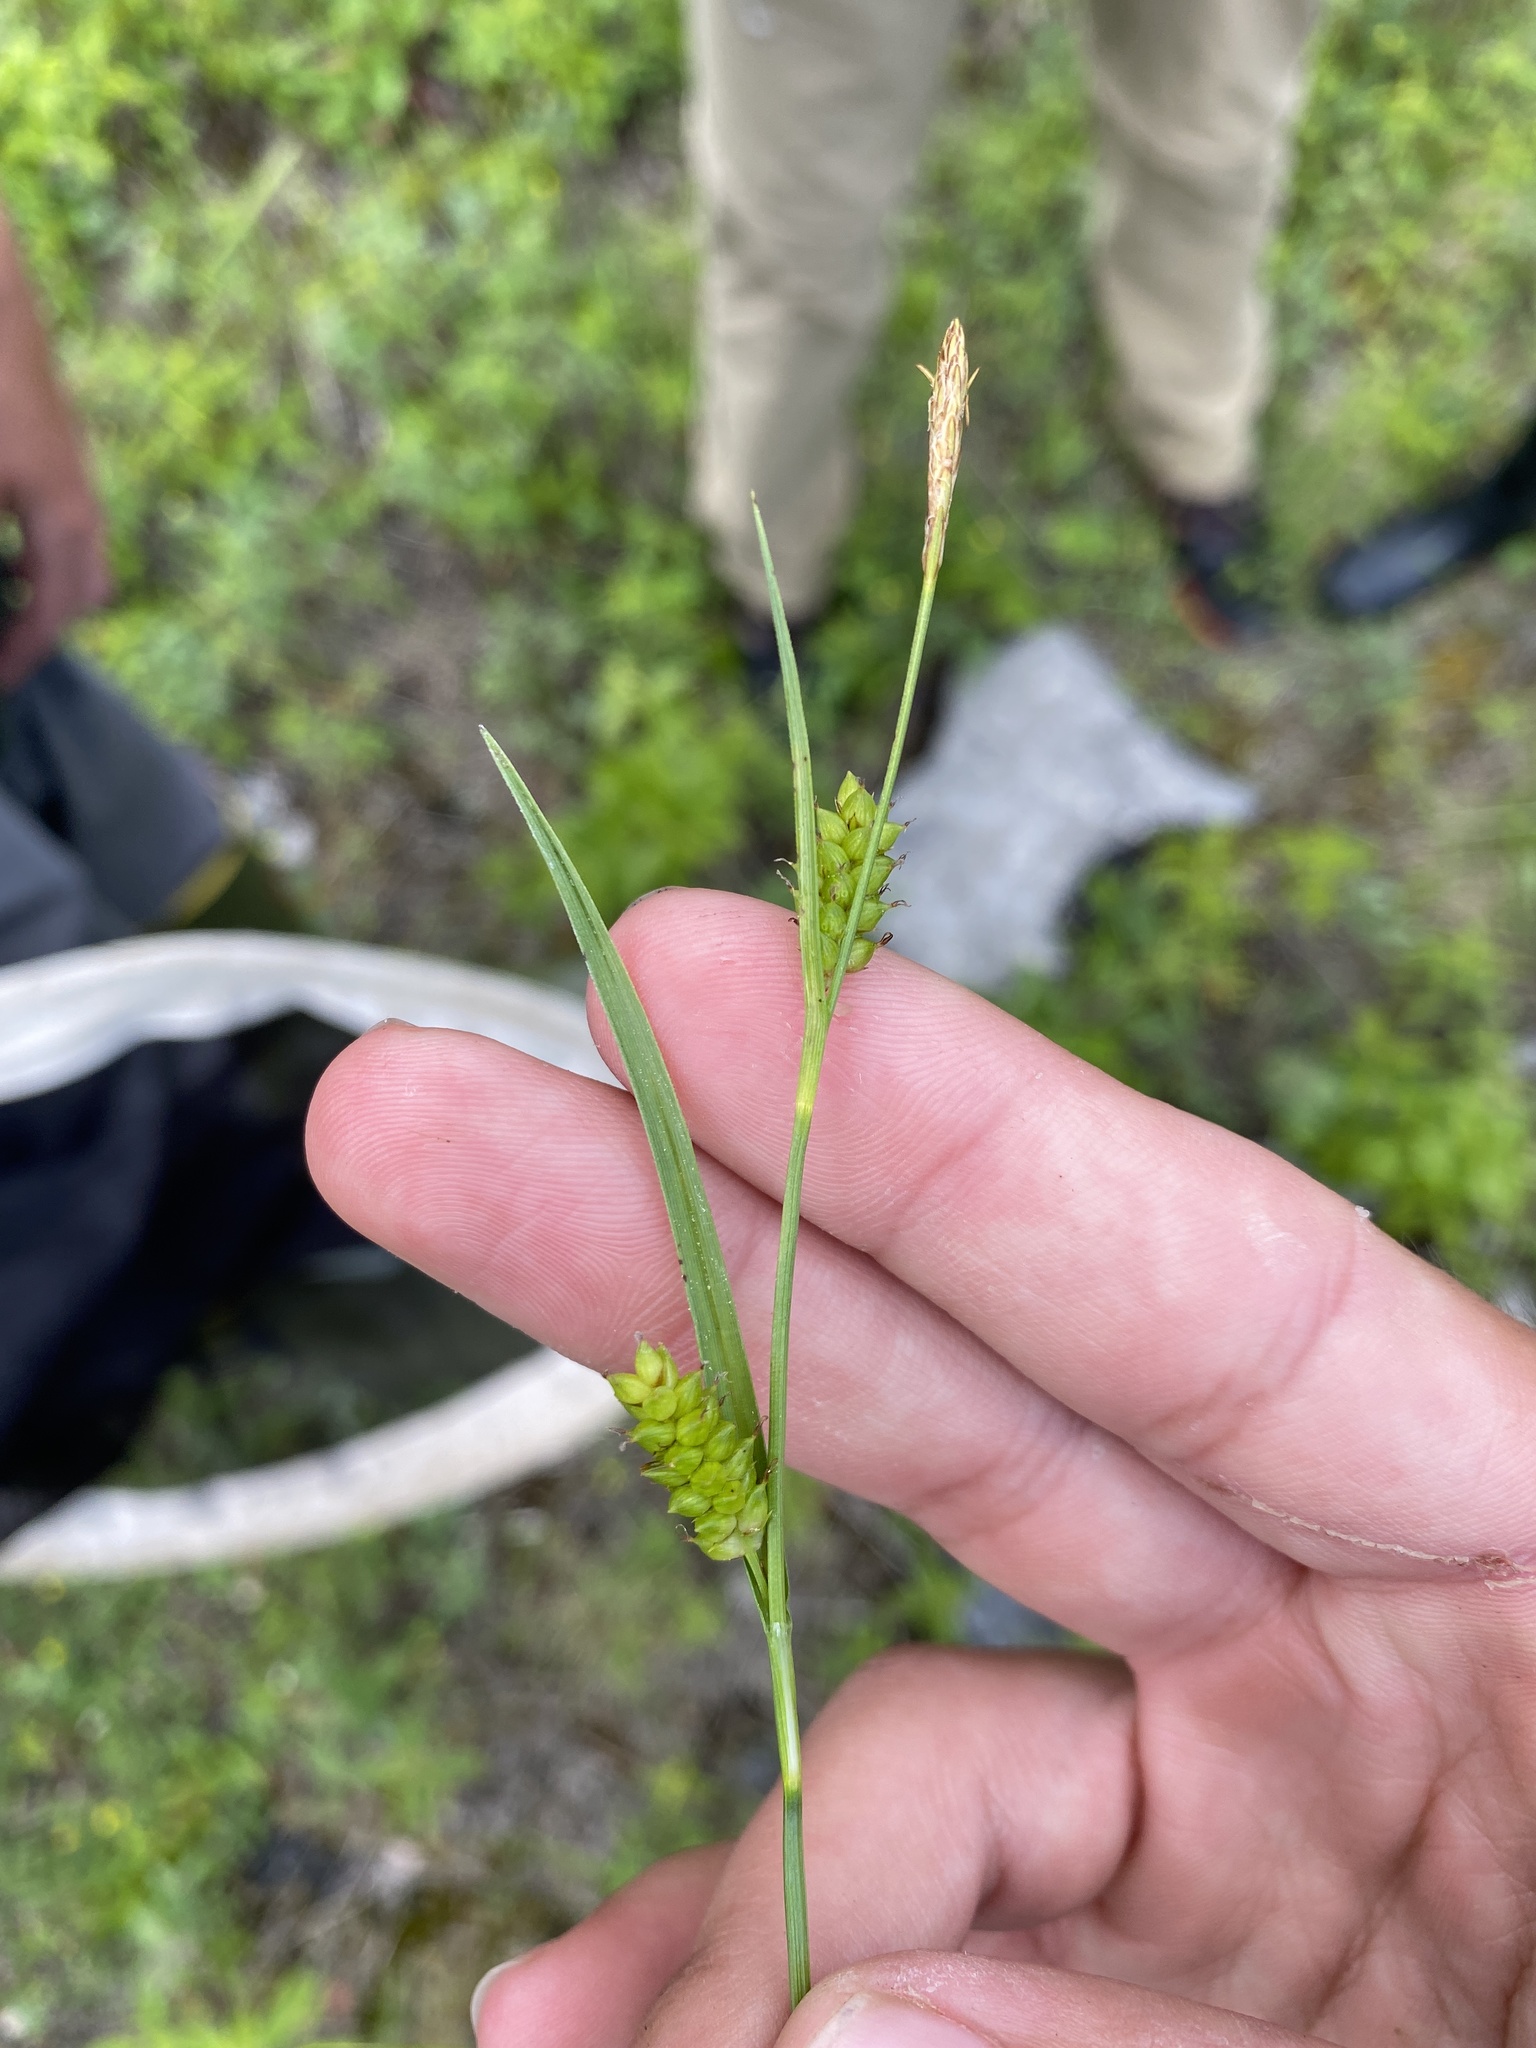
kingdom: Plantae
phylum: Tracheophyta
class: Liliopsida
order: Poales
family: Cyperaceae
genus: Carex
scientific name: Carex crawei
